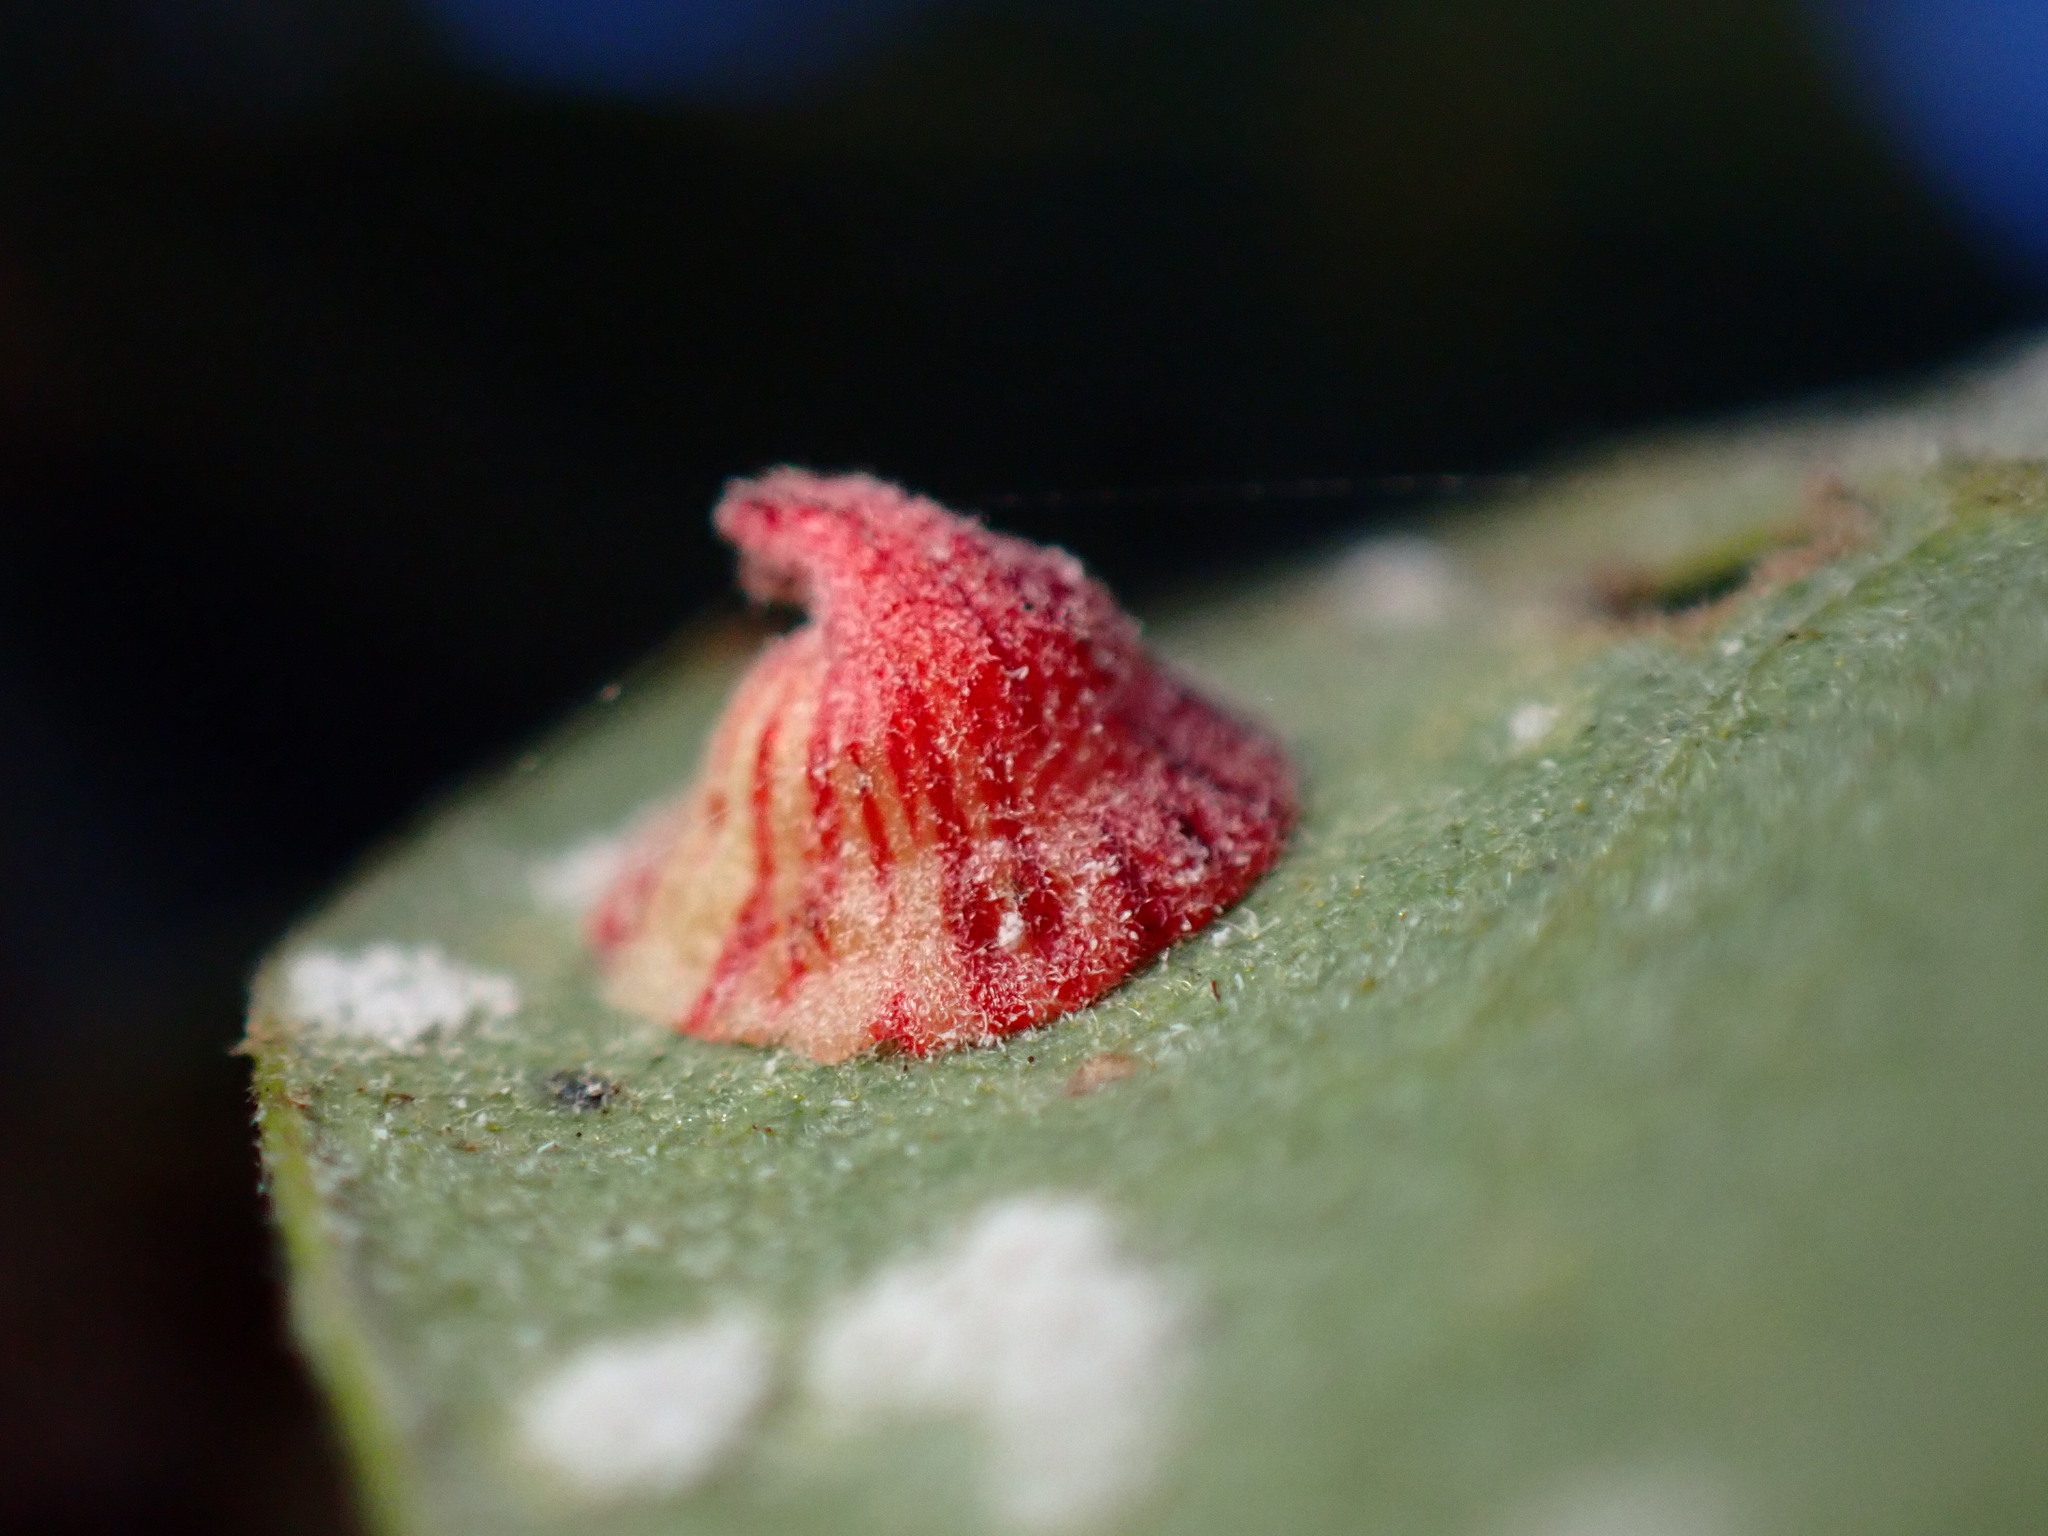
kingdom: Animalia
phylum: Arthropoda
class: Insecta
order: Hymenoptera
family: Cynipidae
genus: Andricus
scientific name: Andricus
